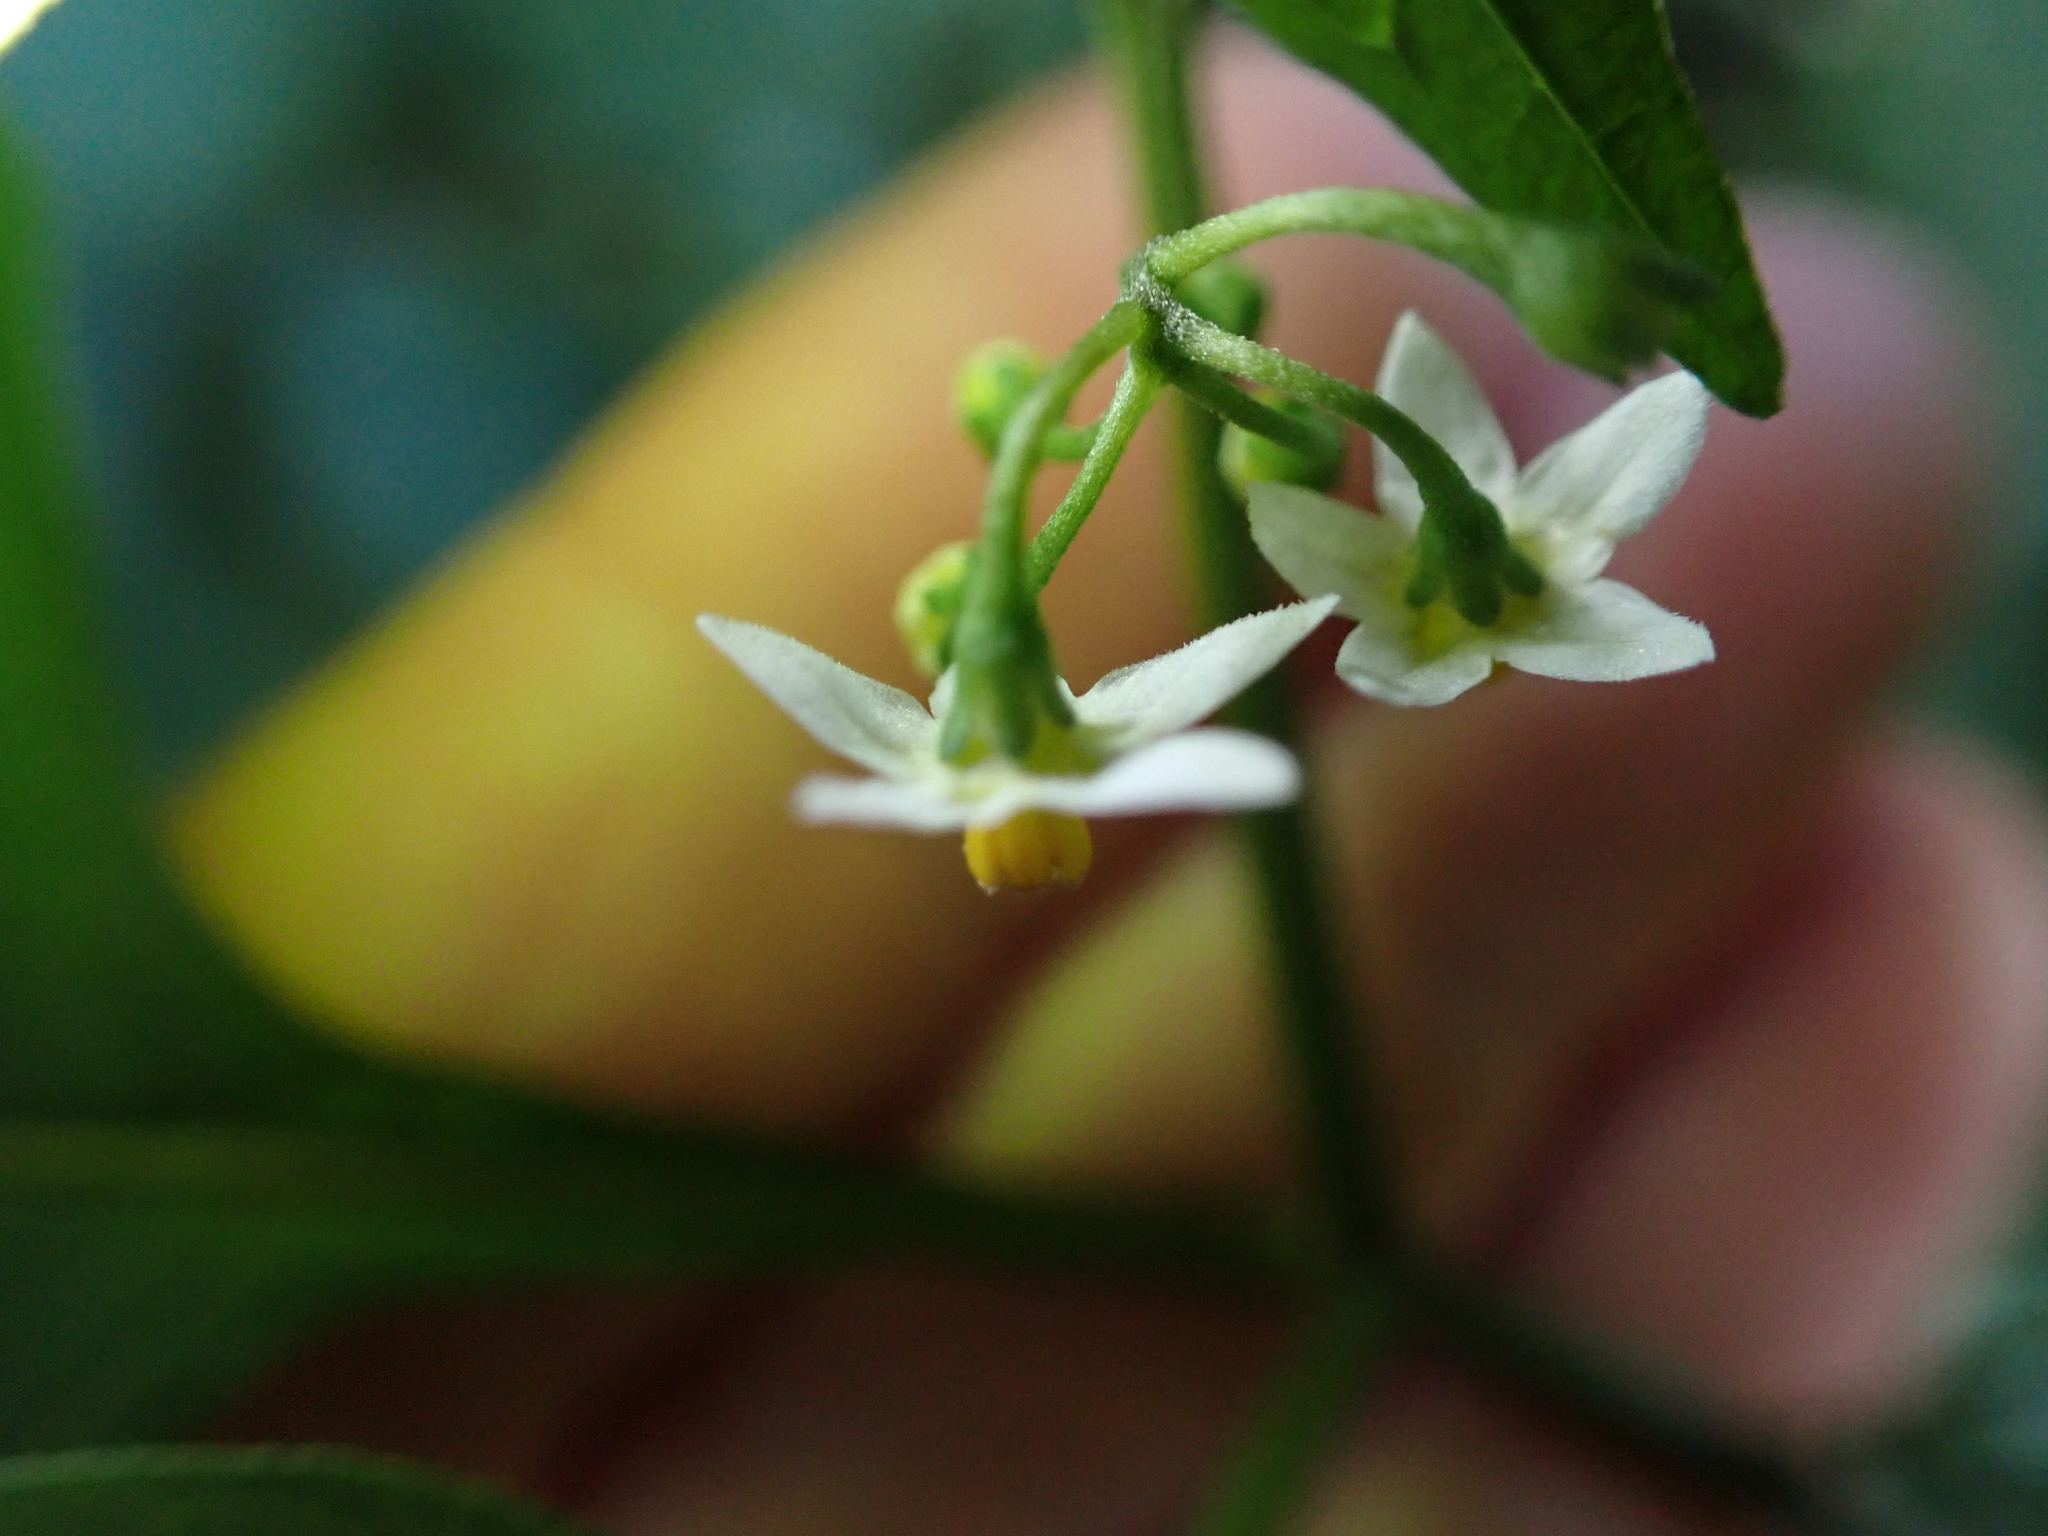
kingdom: Plantae
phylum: Tracheophyta
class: Magnoliopsida
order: Solanales
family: Solanaceae
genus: Solanum
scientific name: Solanum nigrum
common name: Black nightshade
